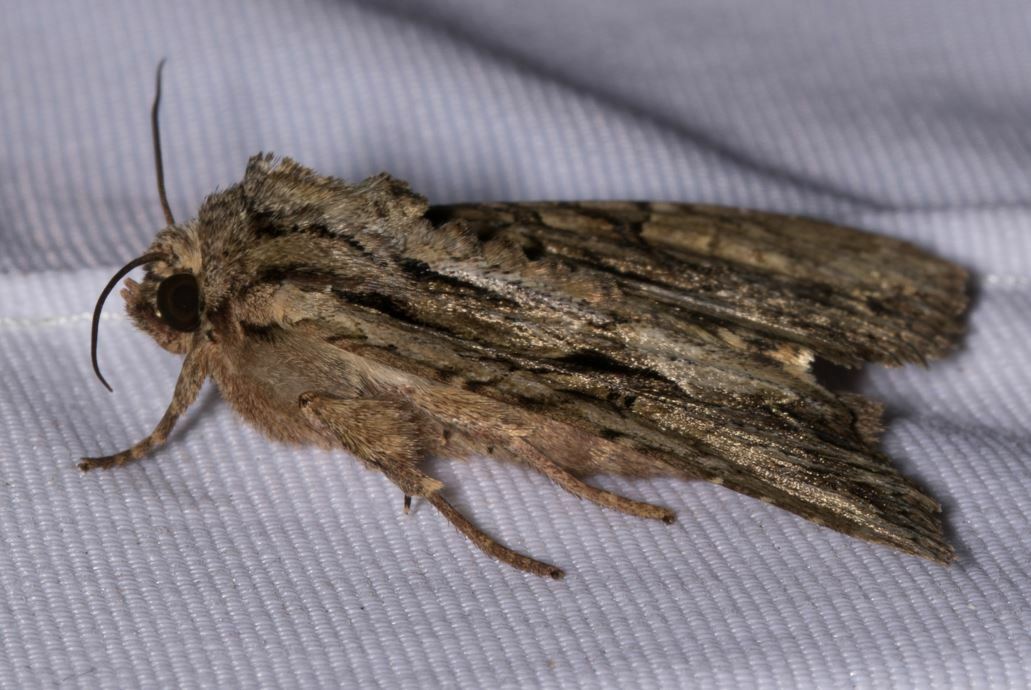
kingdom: Animalia
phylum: Arthropoda
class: Insecta
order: Lepidoptera
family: Noctuidae
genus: Apamea
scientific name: Apamea monoglypha
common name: Dark arches
